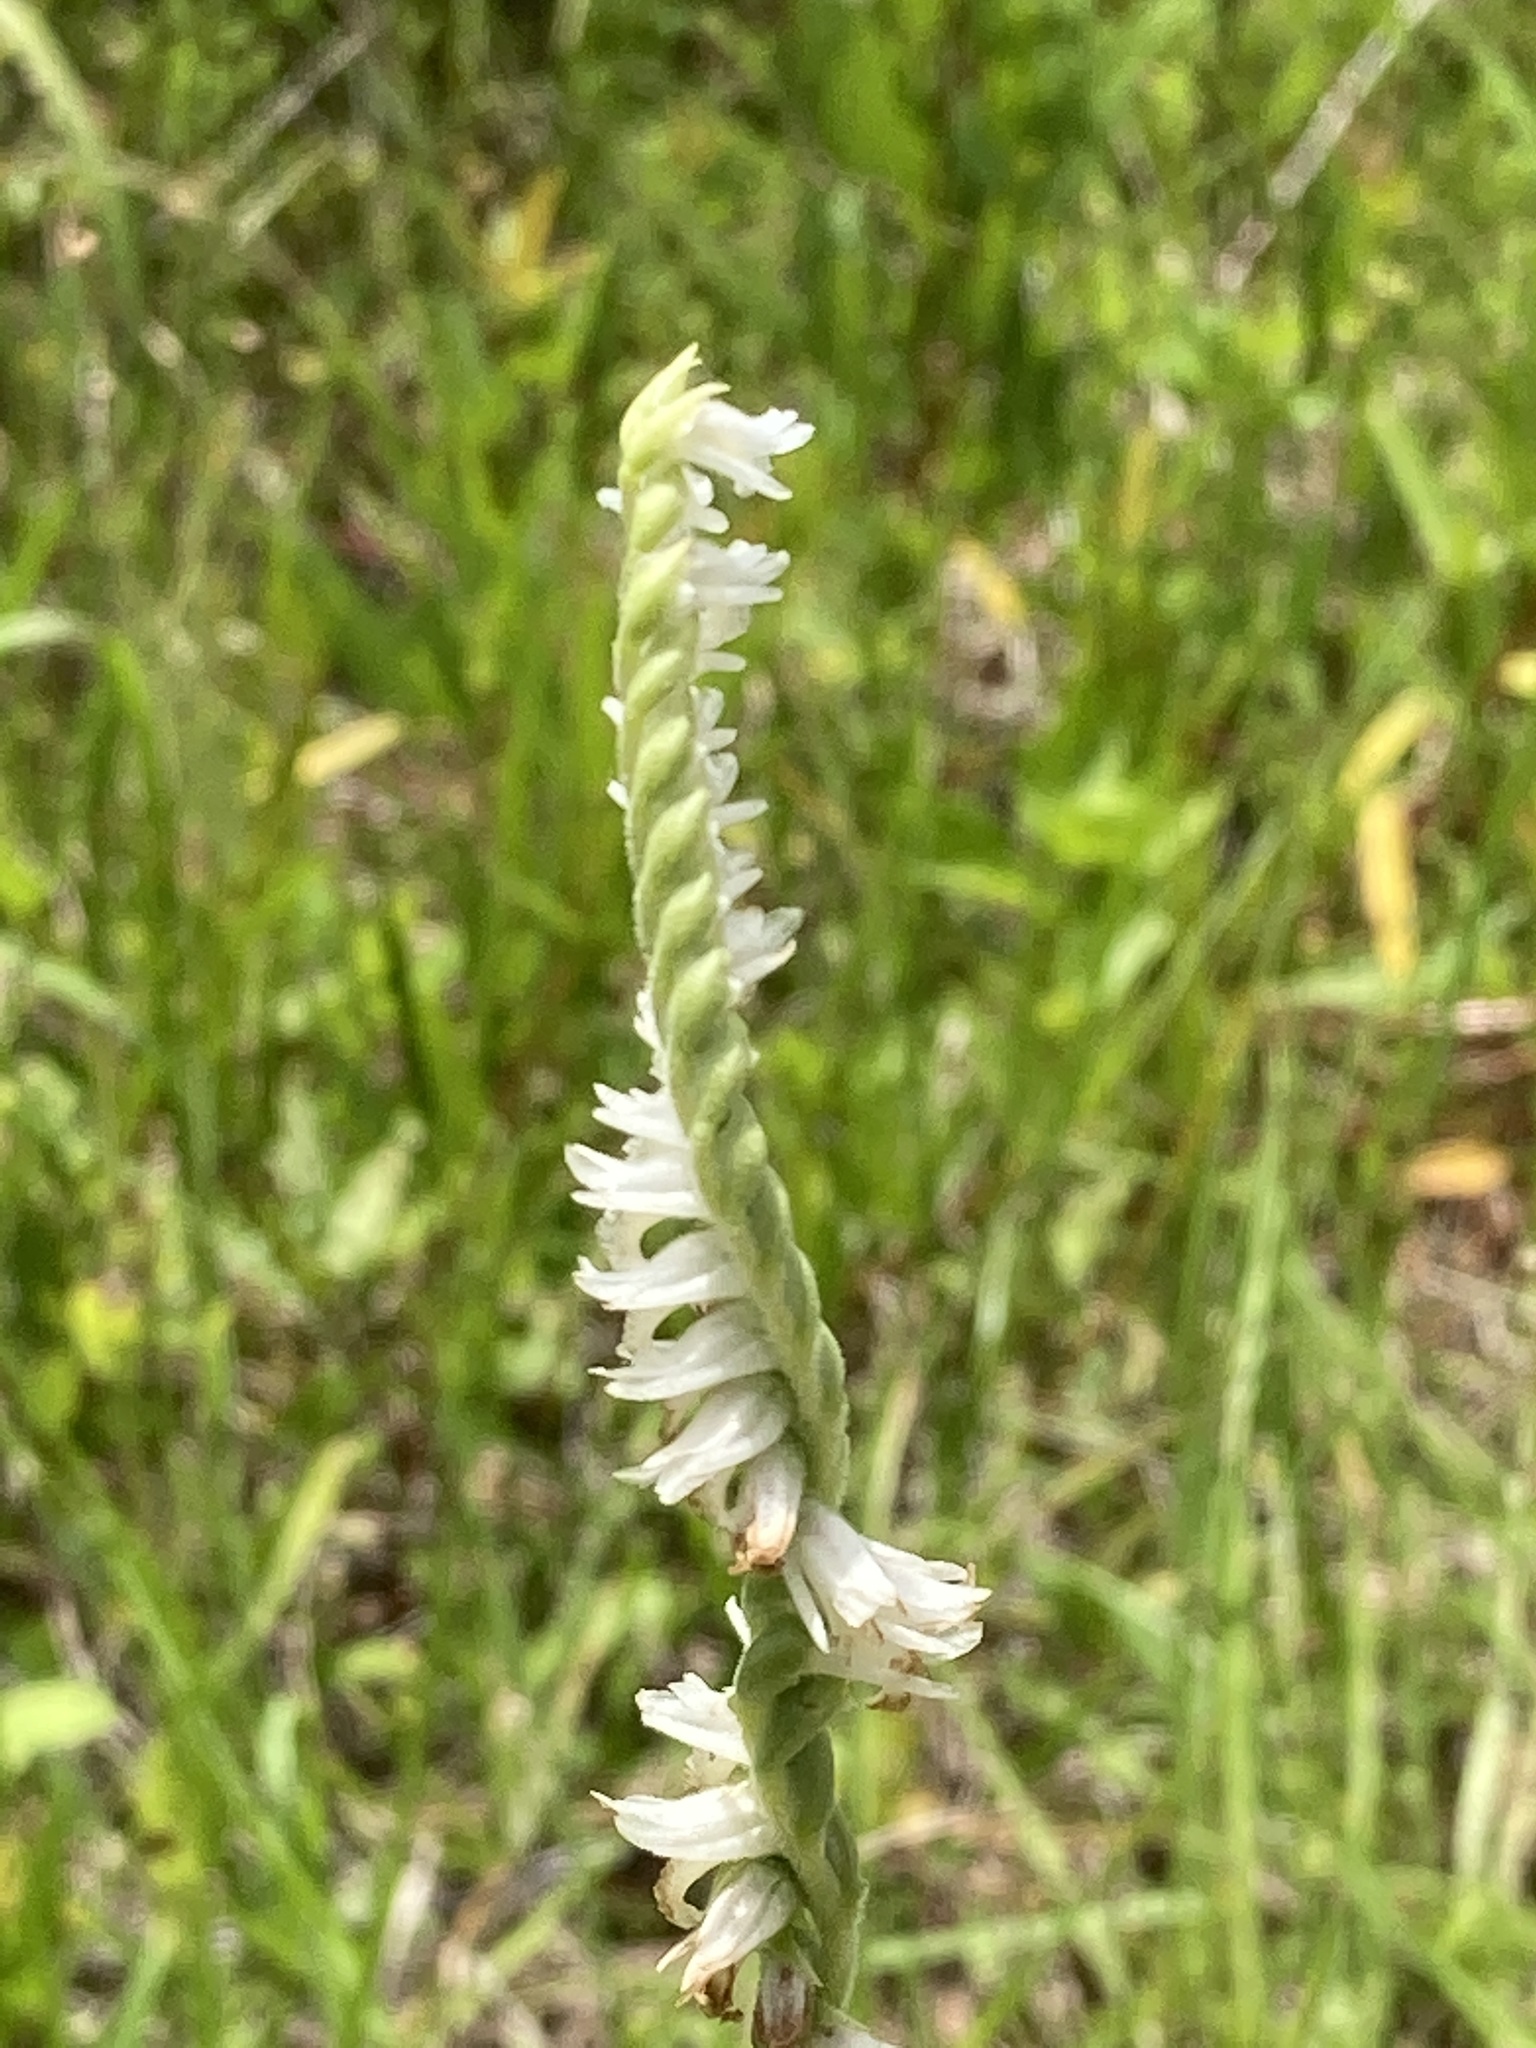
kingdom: Plantae
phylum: Tracheophyta
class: Liliopsida
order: Asparagales
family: Orchidaceae
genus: Spiranthes
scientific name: Spiranthes vernalis
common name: Spring ladies'-tresses
